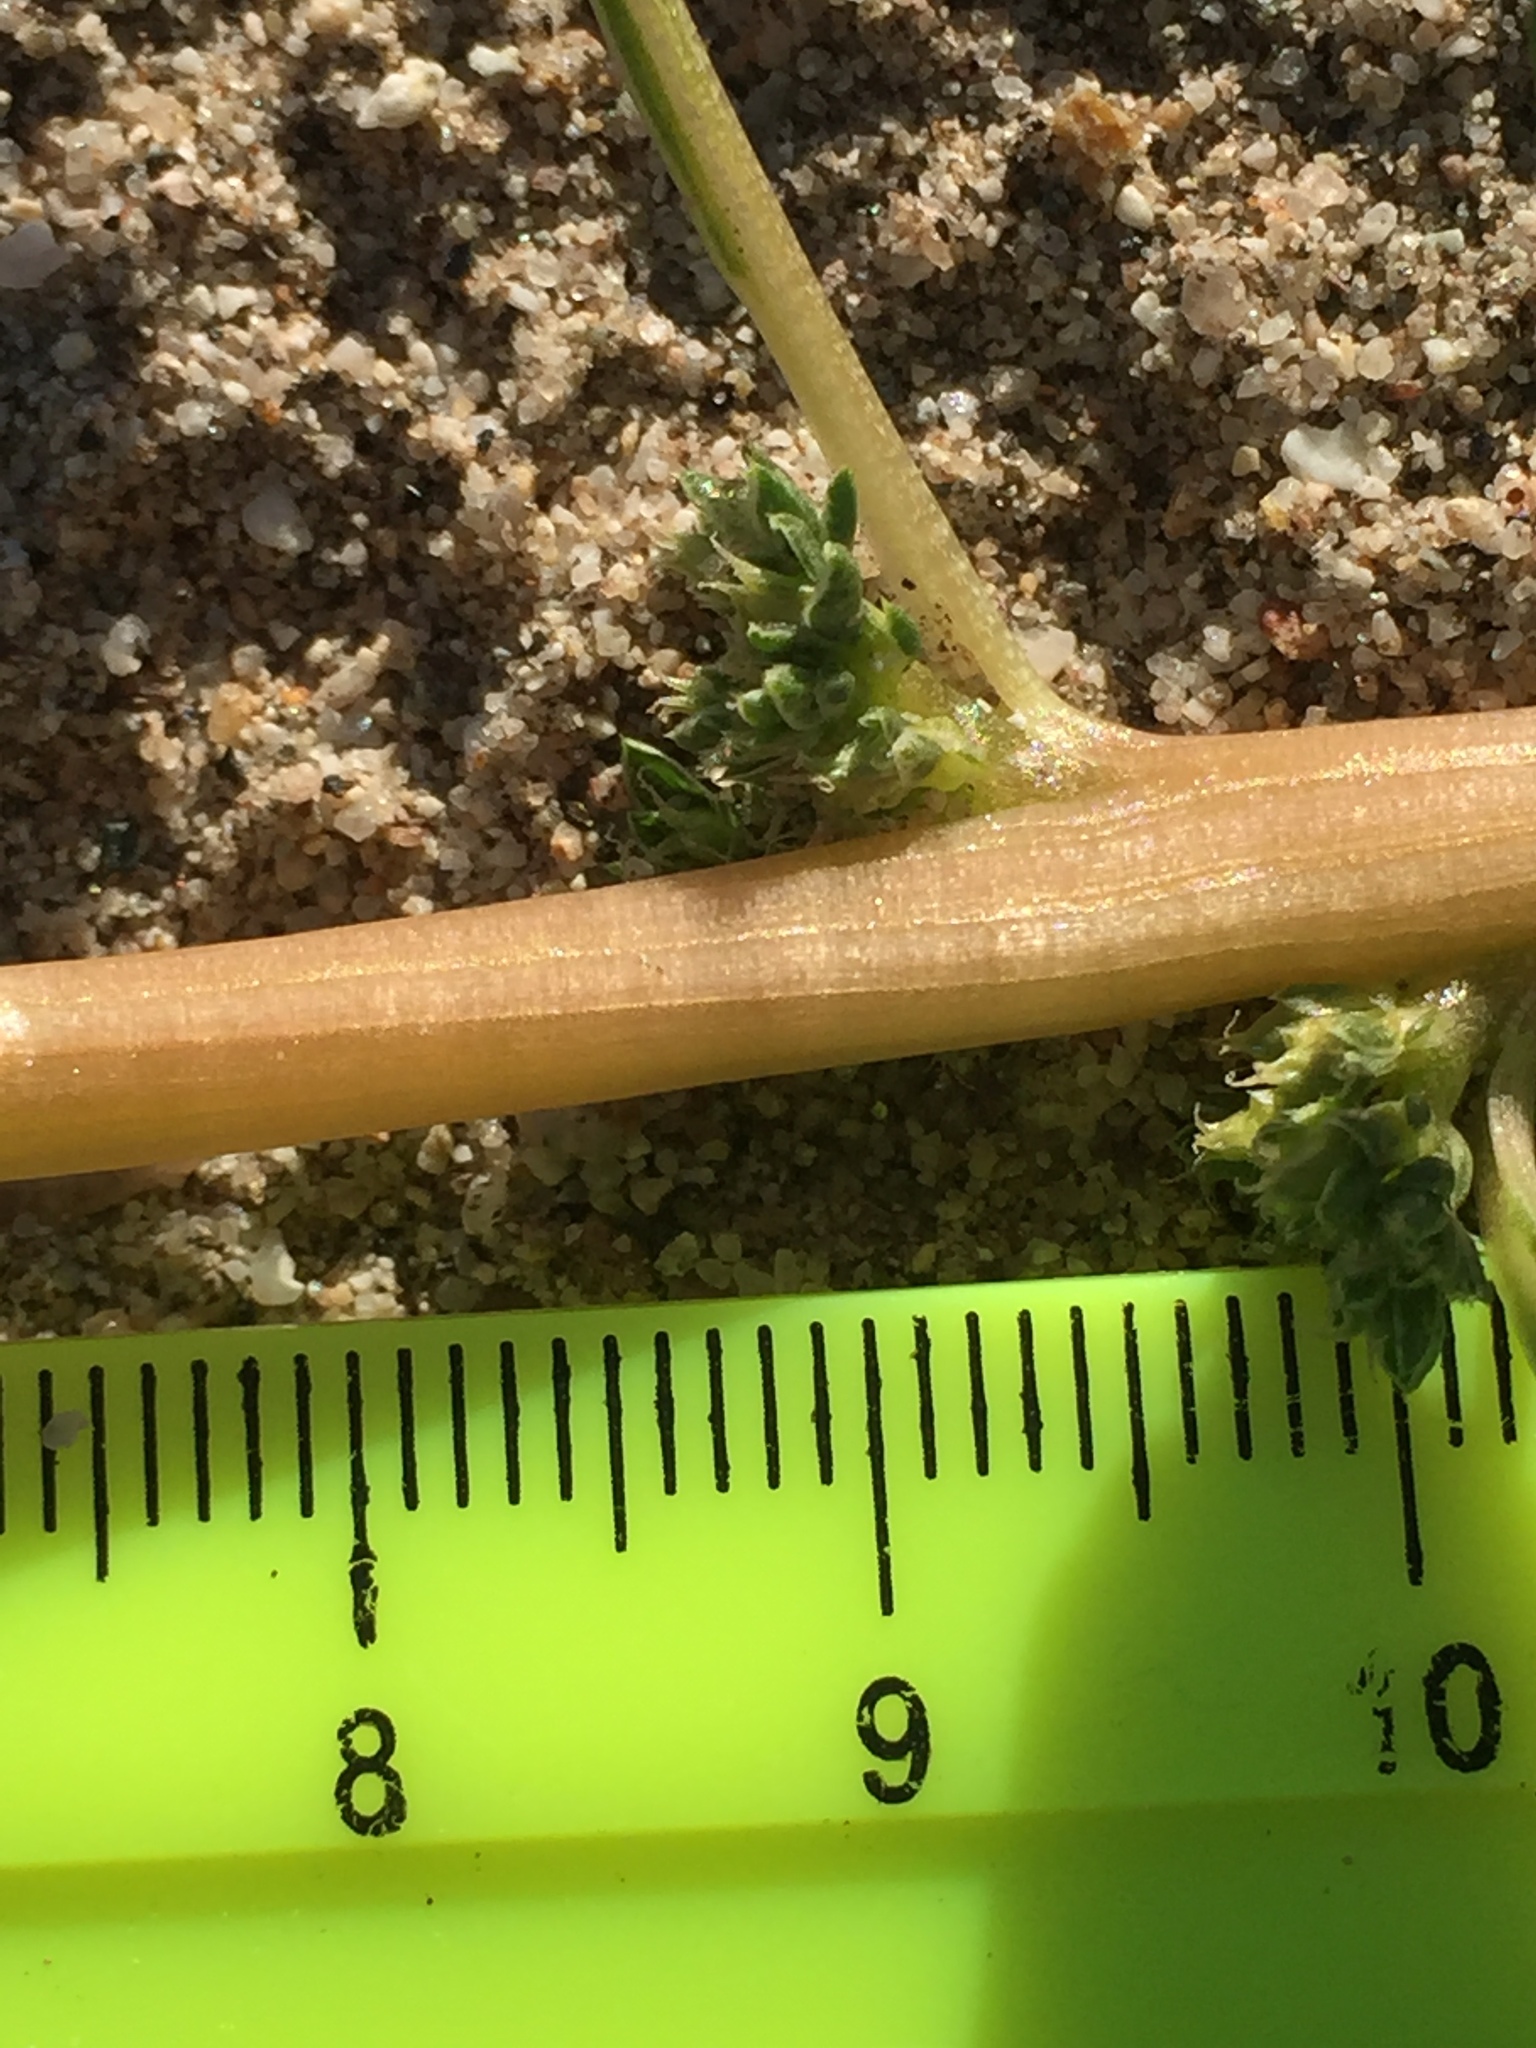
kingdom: Plantae
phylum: Tracheophyta
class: Magnoliopsida
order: Caryophyllales
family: Amaranthaceae
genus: Amaranthus
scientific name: Amaranthus blitoides
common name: Prostrate pigweed
